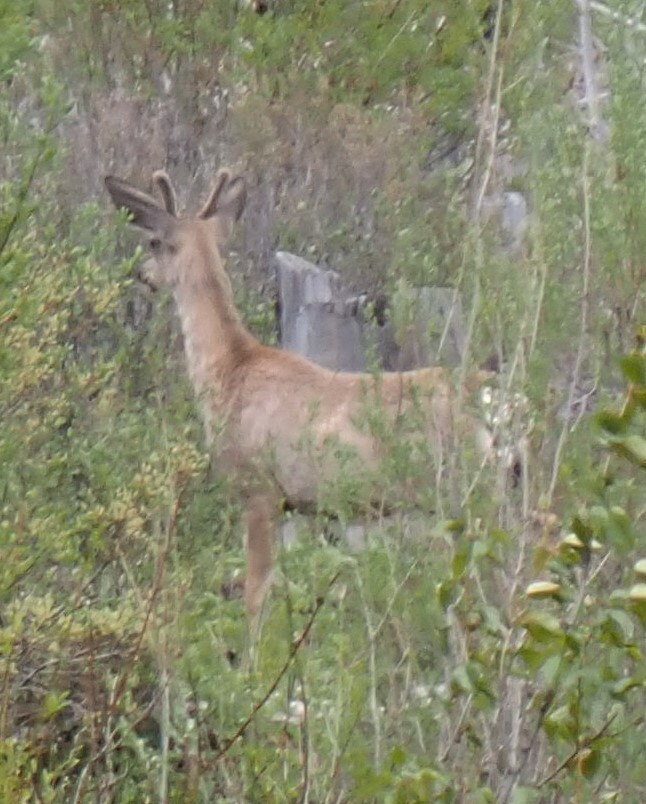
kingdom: Animalia
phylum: Chordata
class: Mammalia
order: Artiodactyla
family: Cervidae
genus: Odocoileus
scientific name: Odocoileus hemionus
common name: Mule deer
